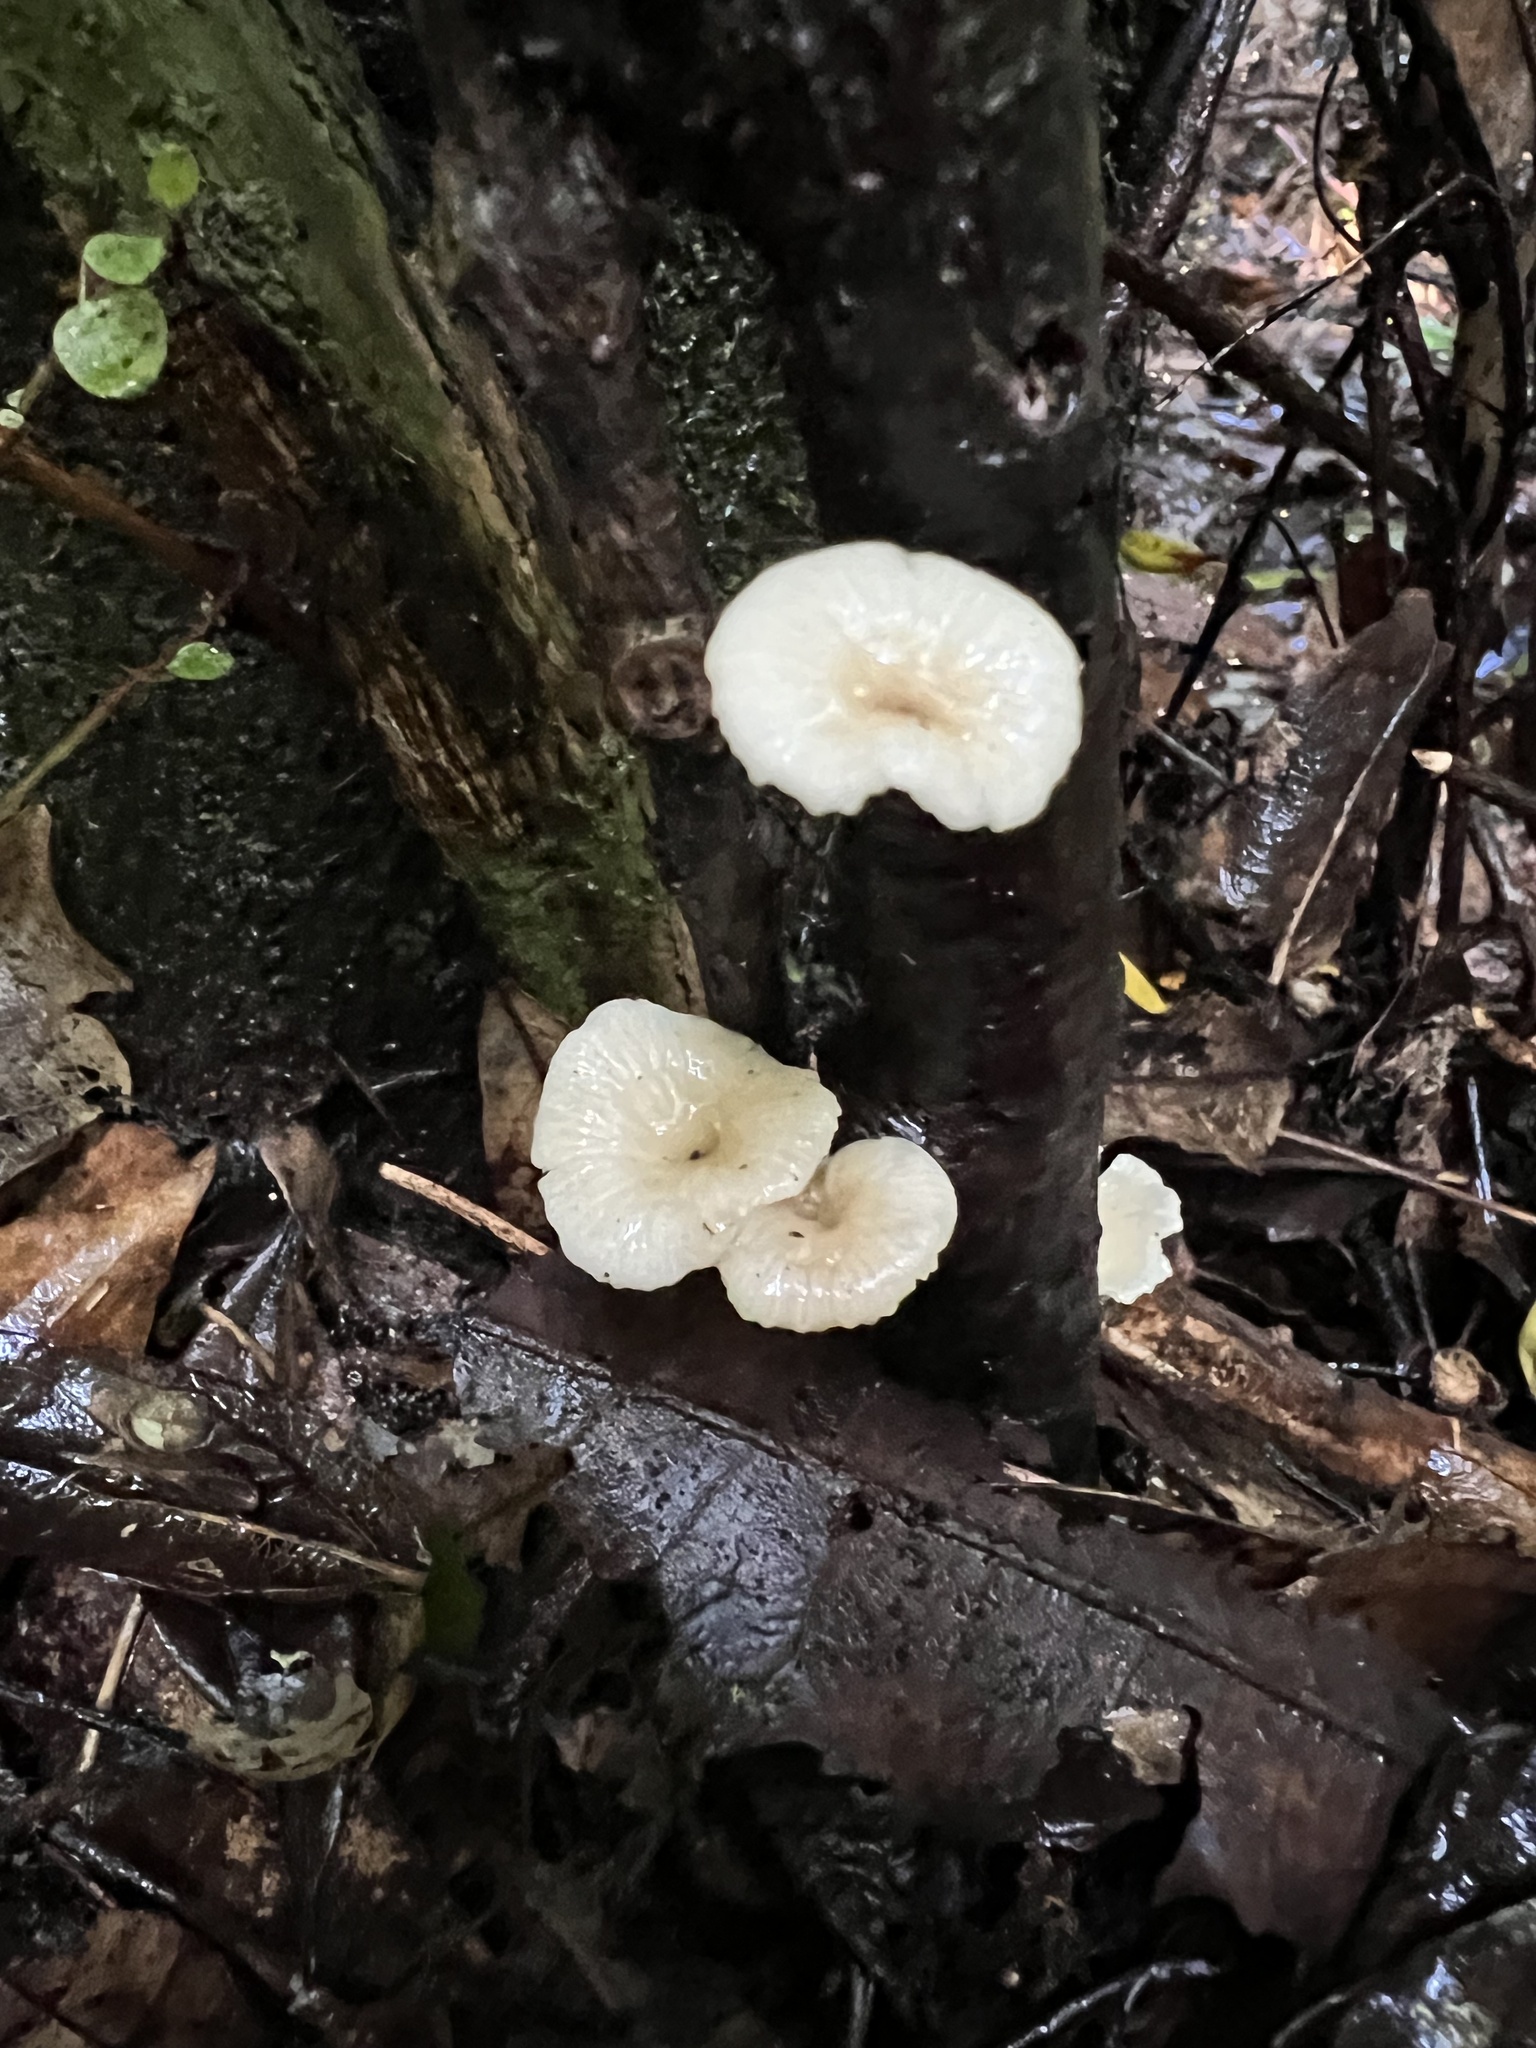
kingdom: Fungi
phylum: Basidiomycota
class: Agaricomycetes
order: Agaricales
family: Tricholomataceae
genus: Rhizocybe
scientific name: Rhizocybe albida
